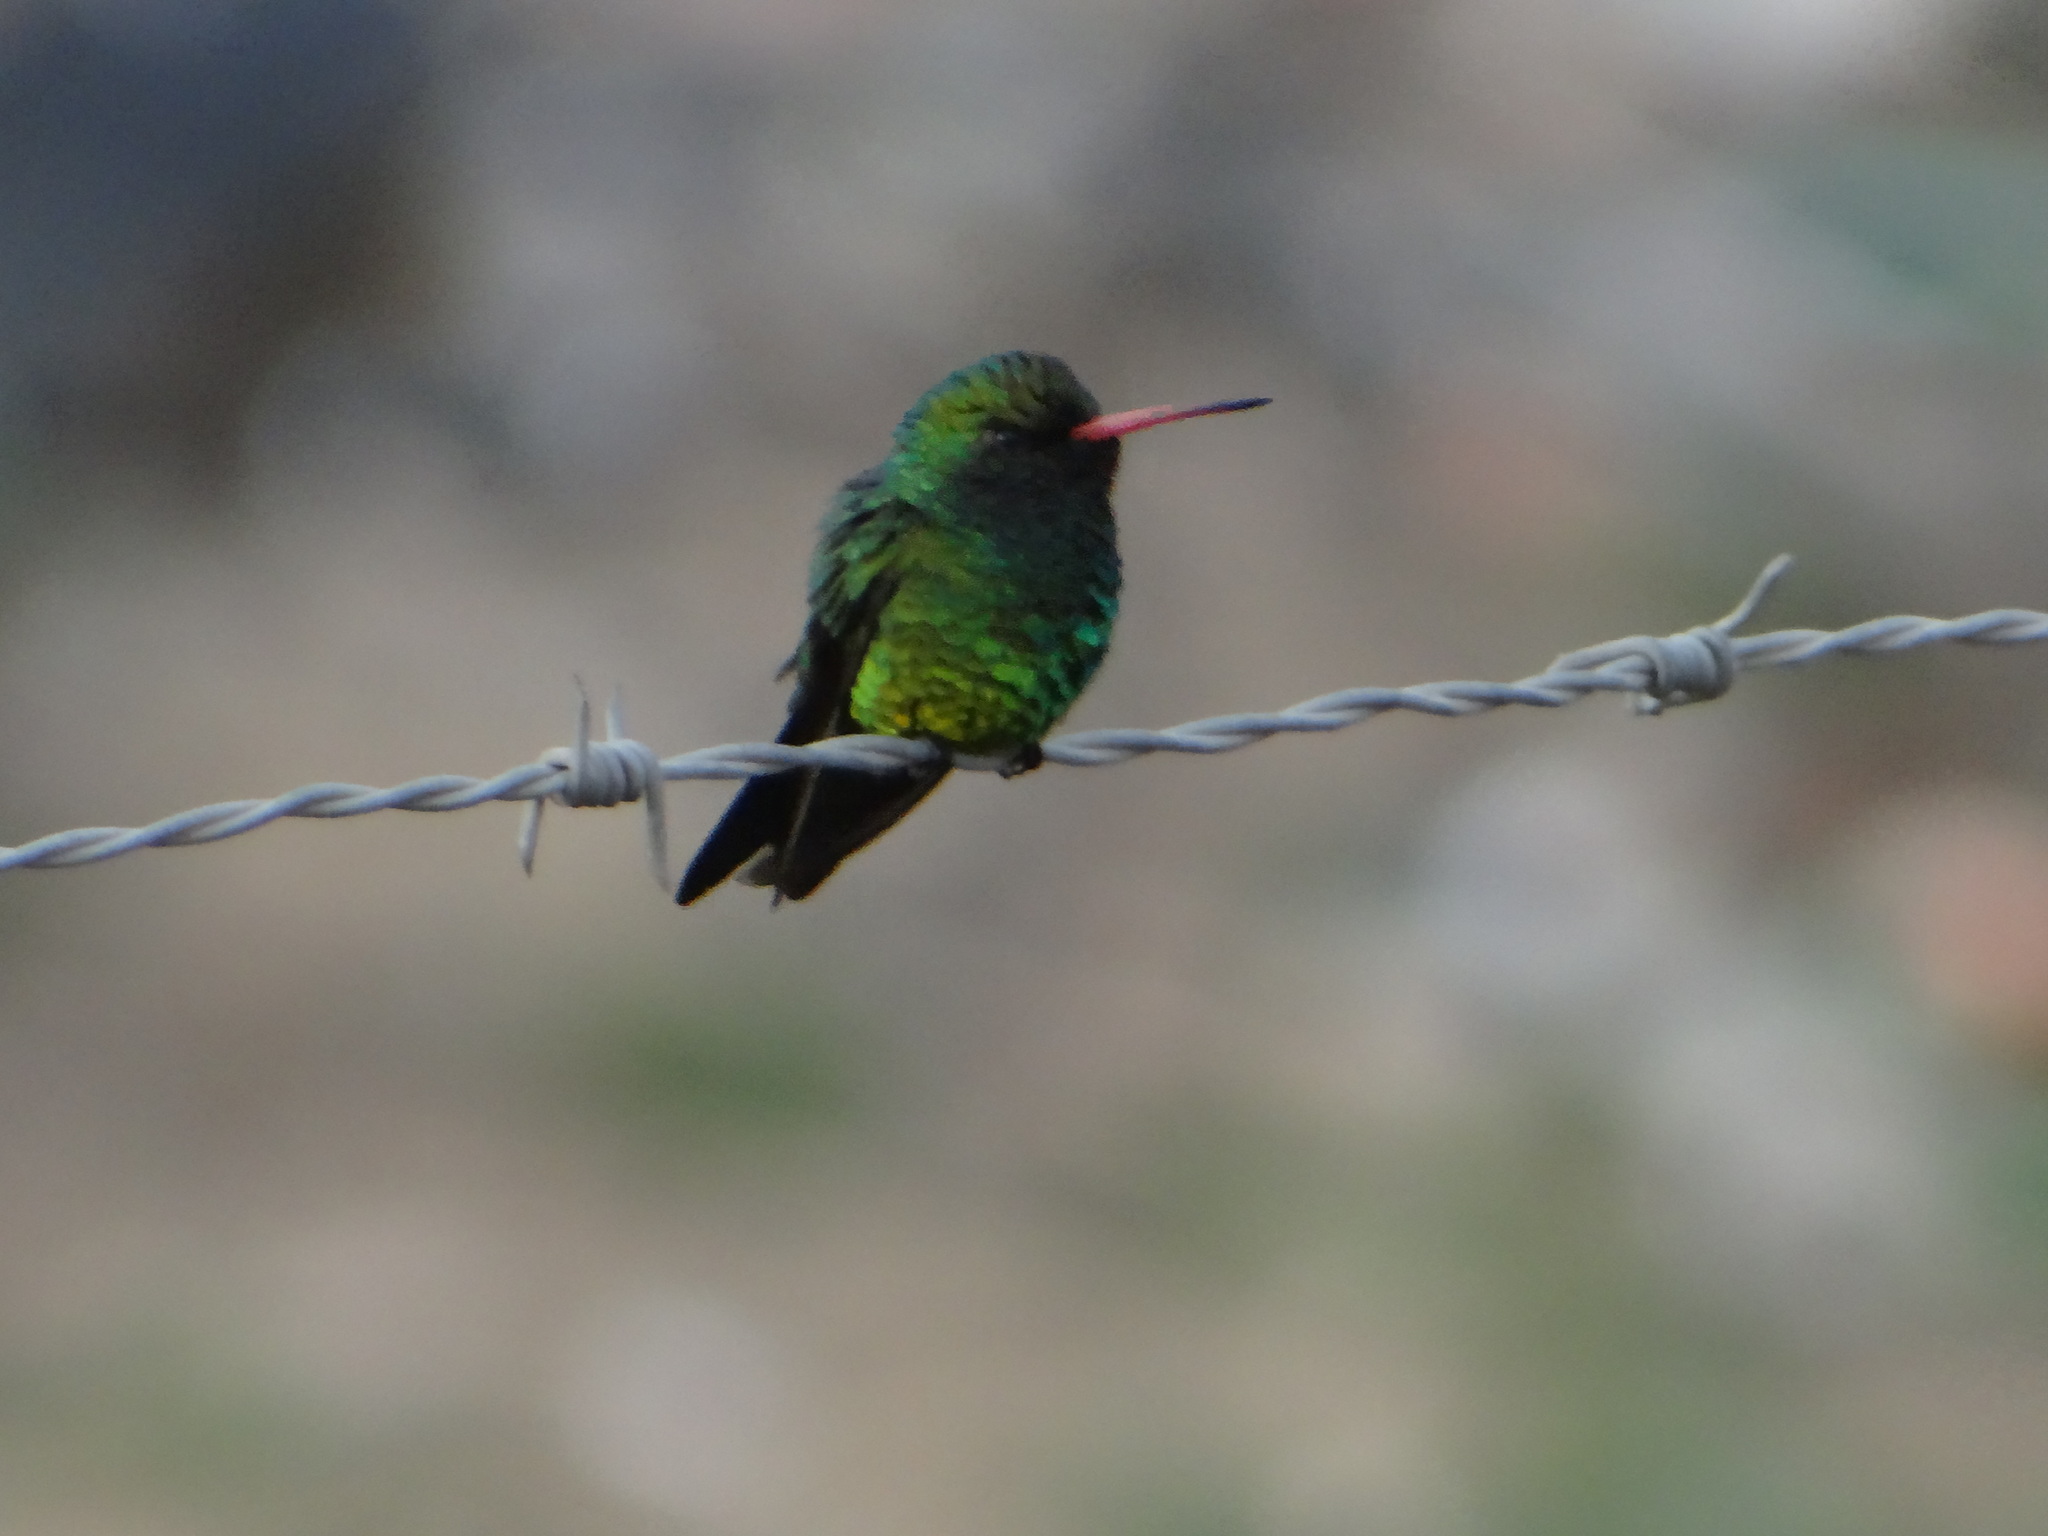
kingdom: Animalia
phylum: Chordata
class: Aves
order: Apodiformes
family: Trochilidae
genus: Chlorostilbon
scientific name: Chlorostilbon lucidus
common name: Glittering-bellied emerald
